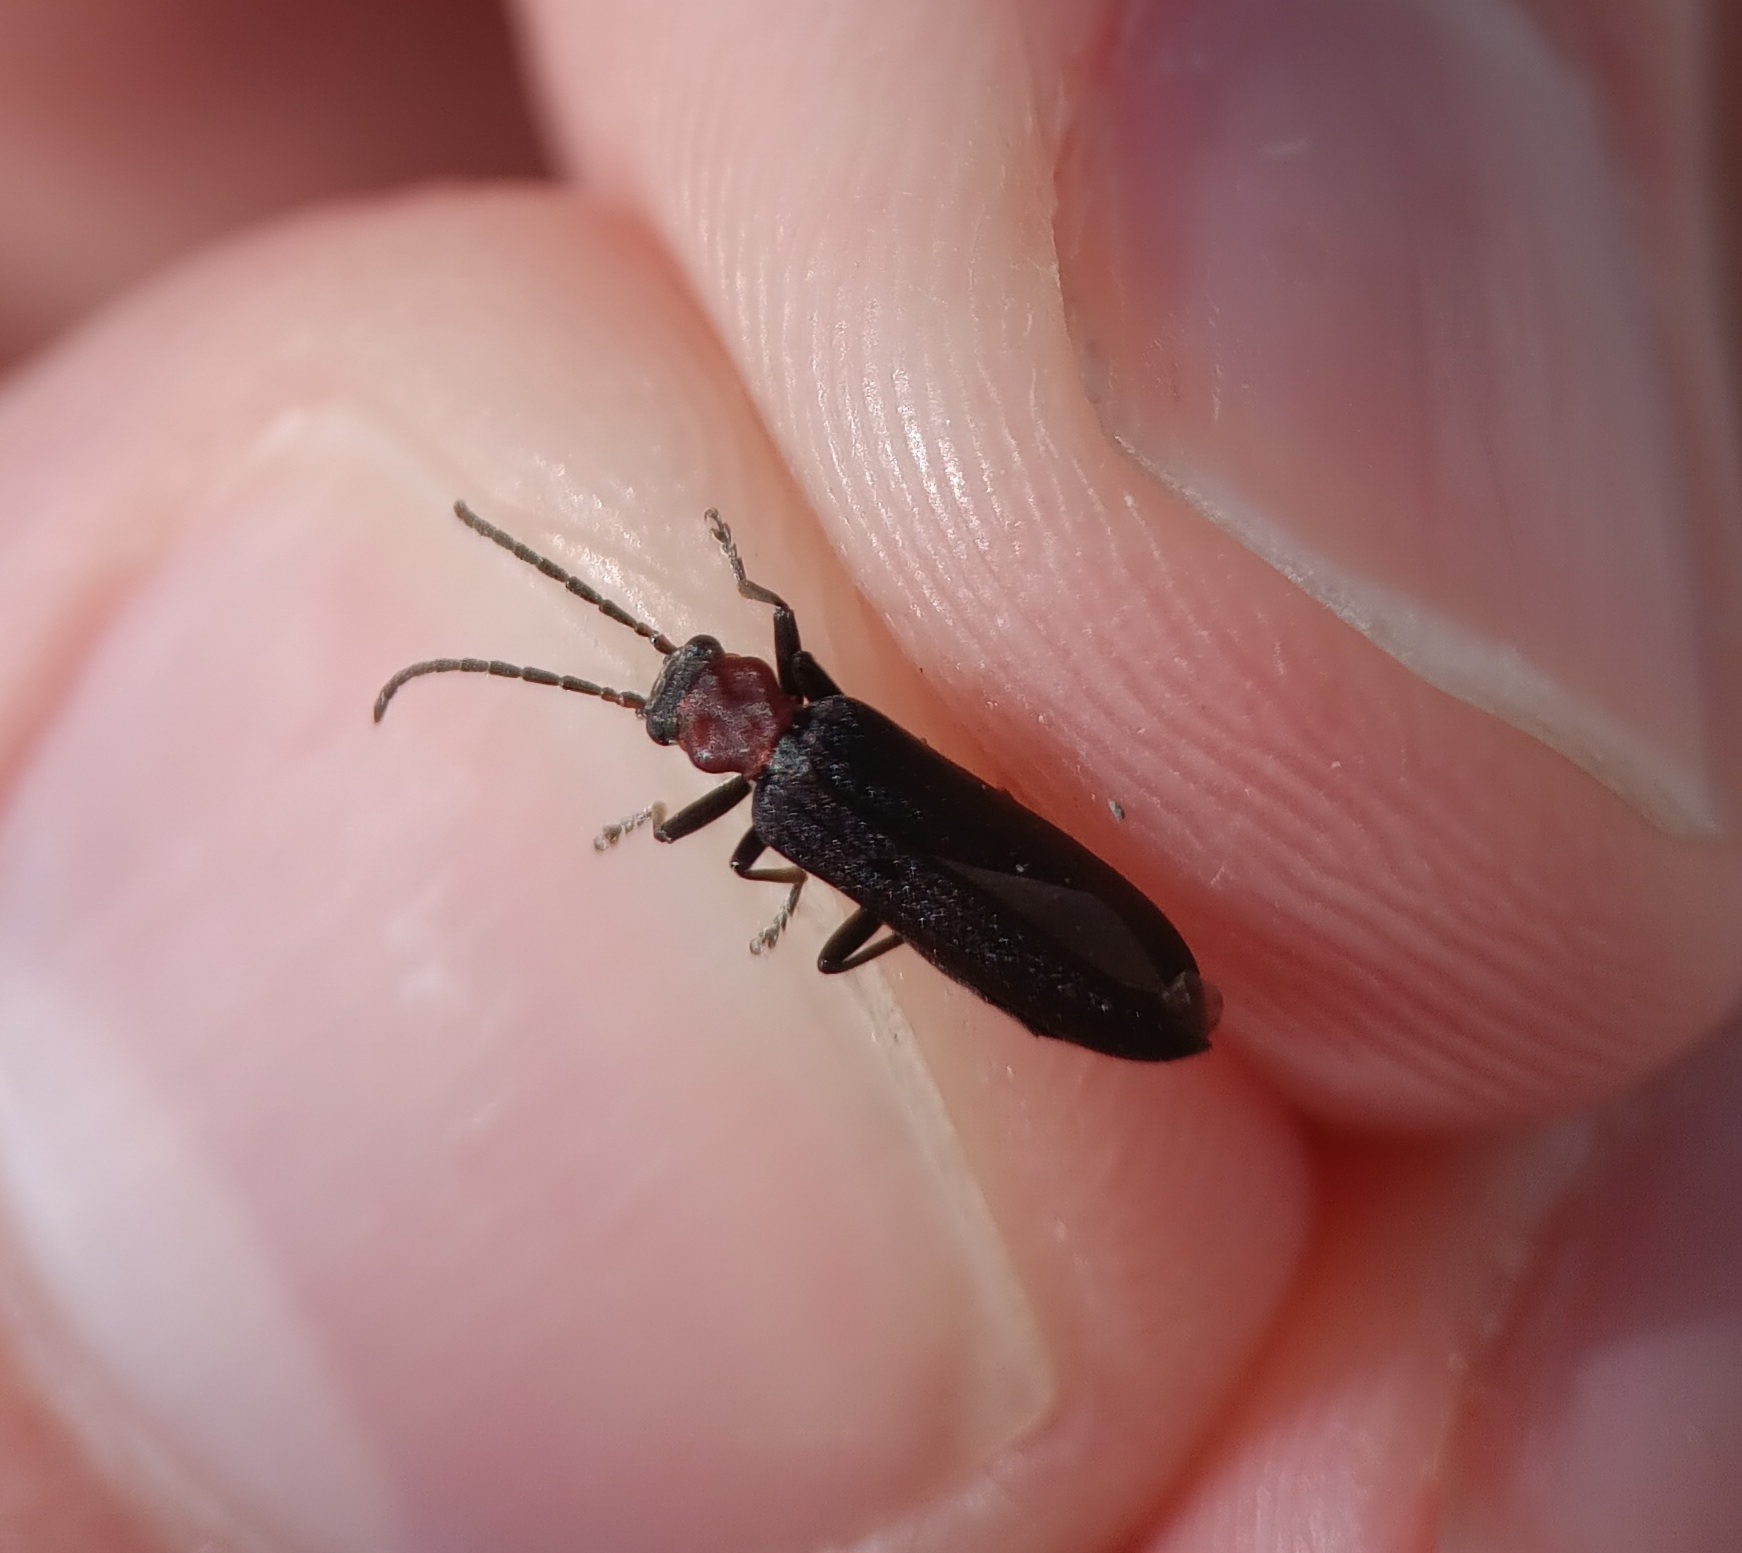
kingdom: Animalia
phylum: Arthropoda
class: Insecta
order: Coleoptera
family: Oedemeridae
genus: Ischnomera
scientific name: Ischnomera
